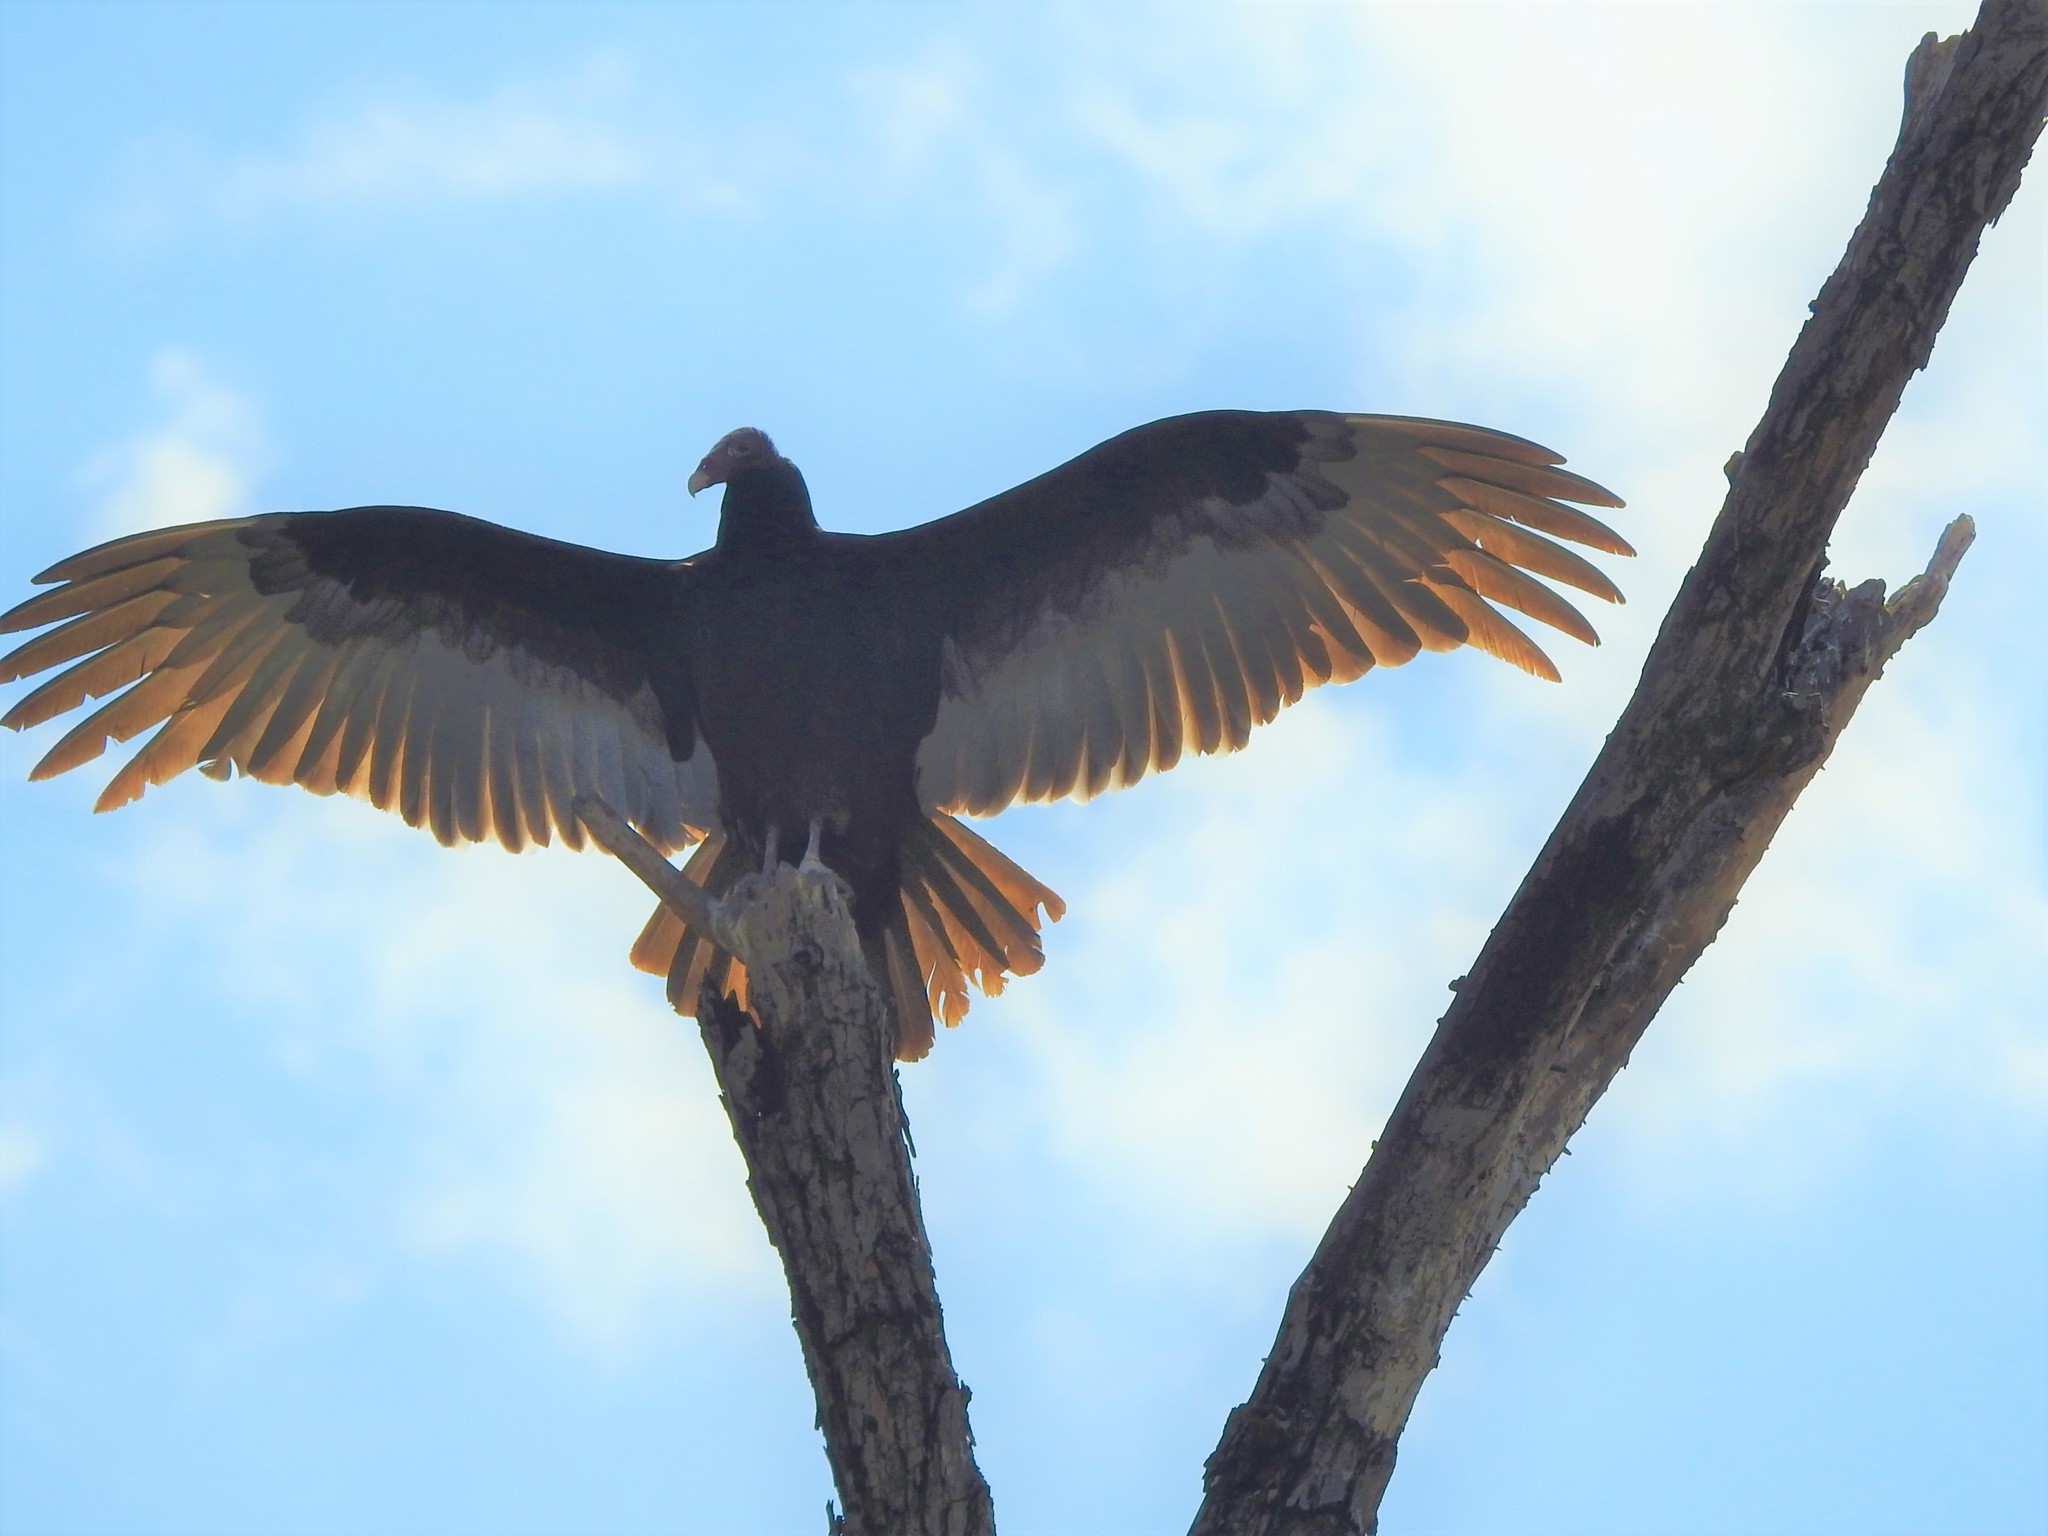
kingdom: Animalia
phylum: Chordata
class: Aves
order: Accipitriformes
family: Cathartidae
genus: Cathartes
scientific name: Cathartes aura
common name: Turkey vulture
